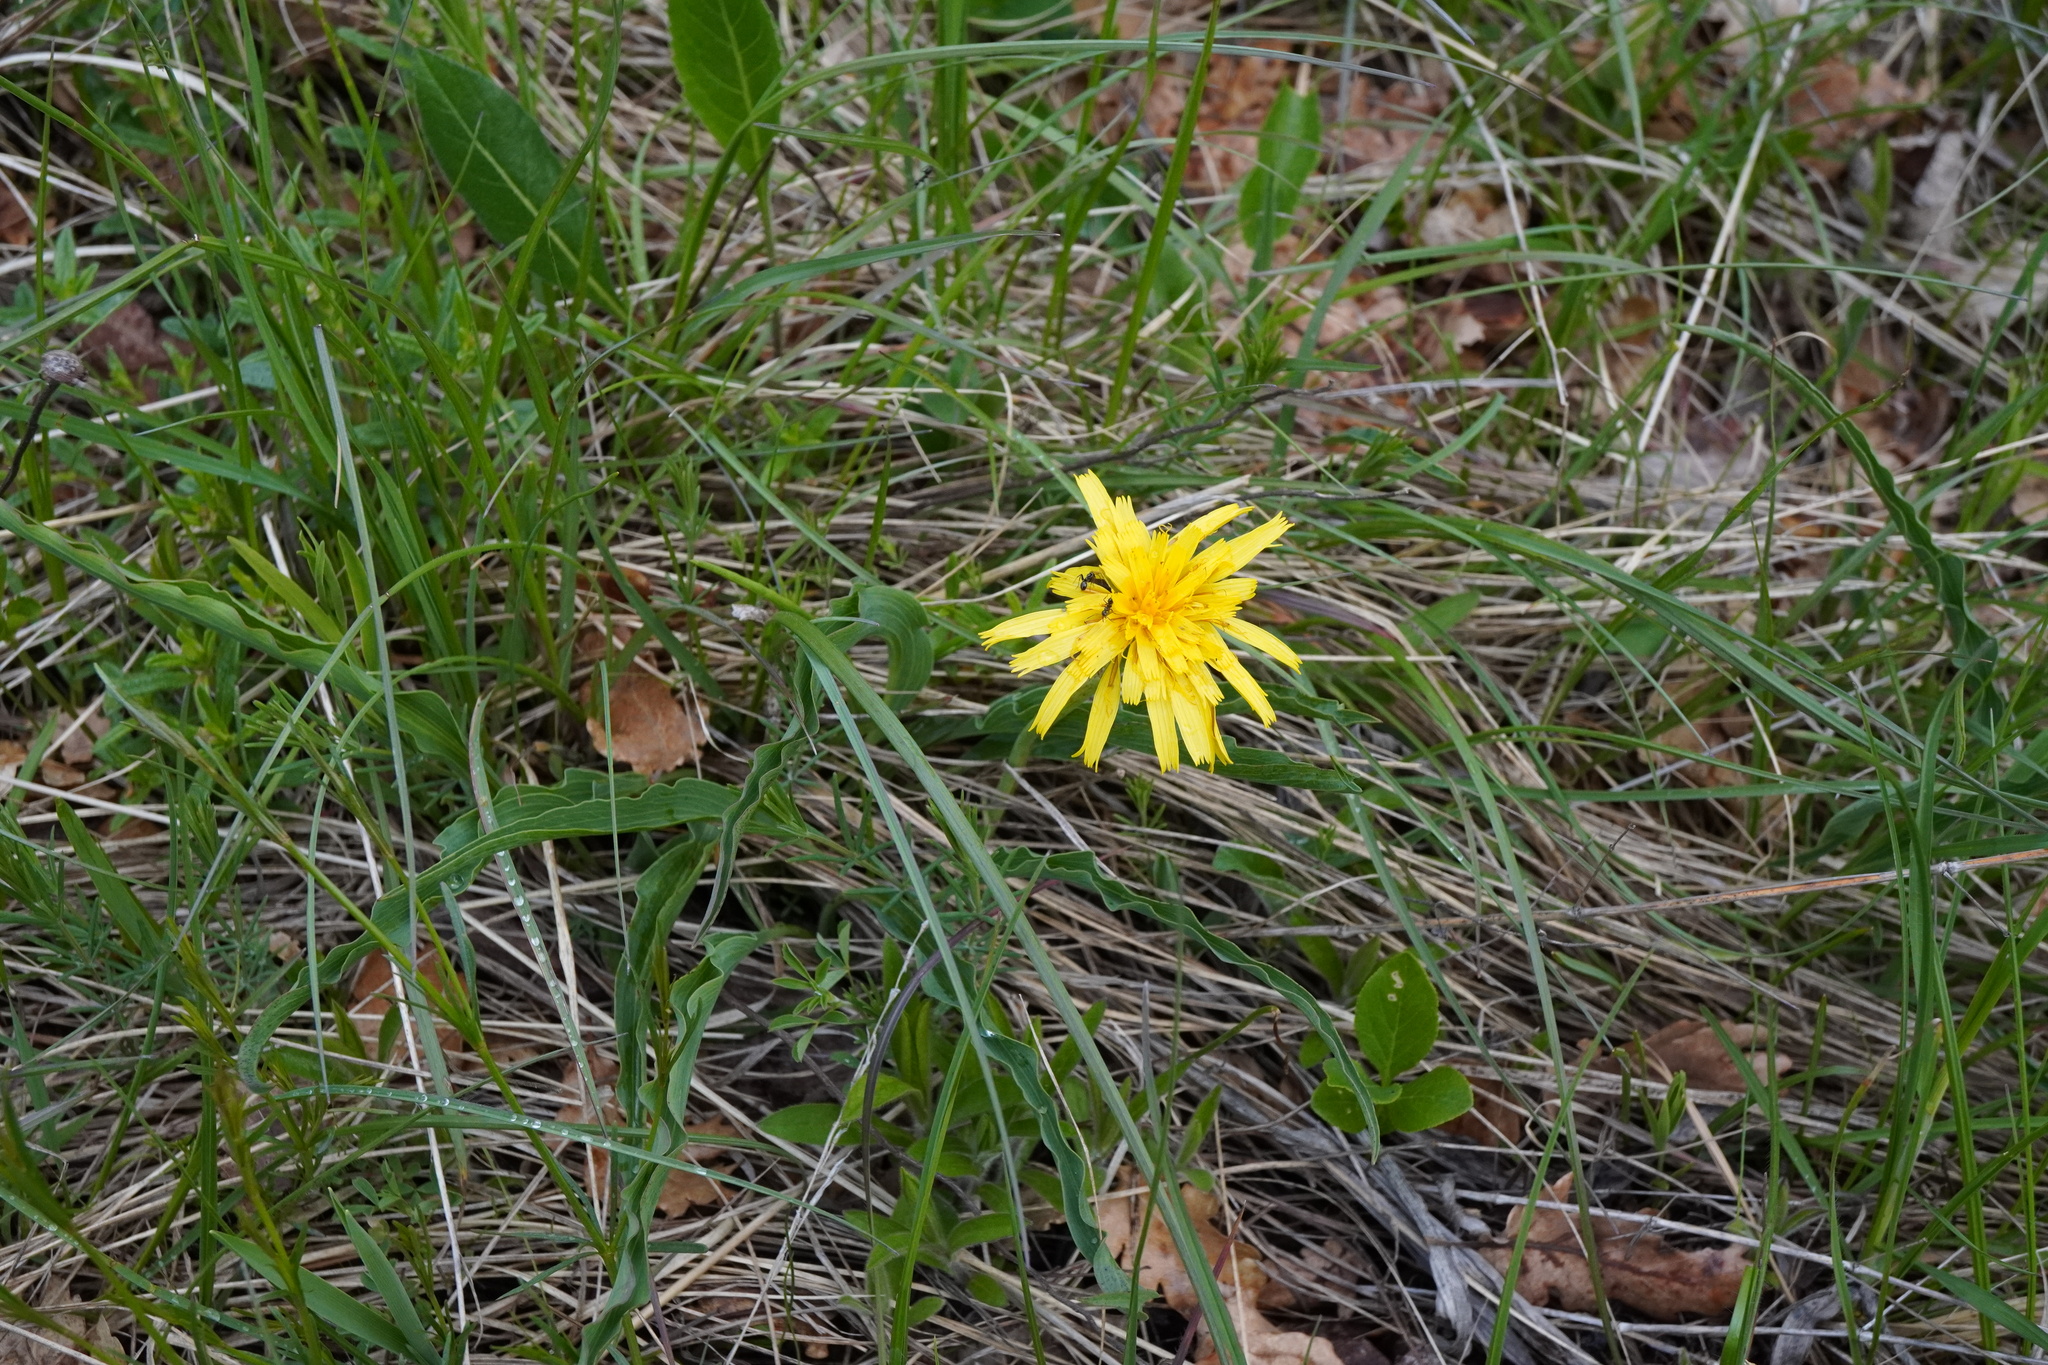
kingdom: Plantae
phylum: Tracheophyta
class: Magnoliopsida
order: Asterales
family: Asteraceae
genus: Takhtajaniantha
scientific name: Takhtajaniantha austriaca
